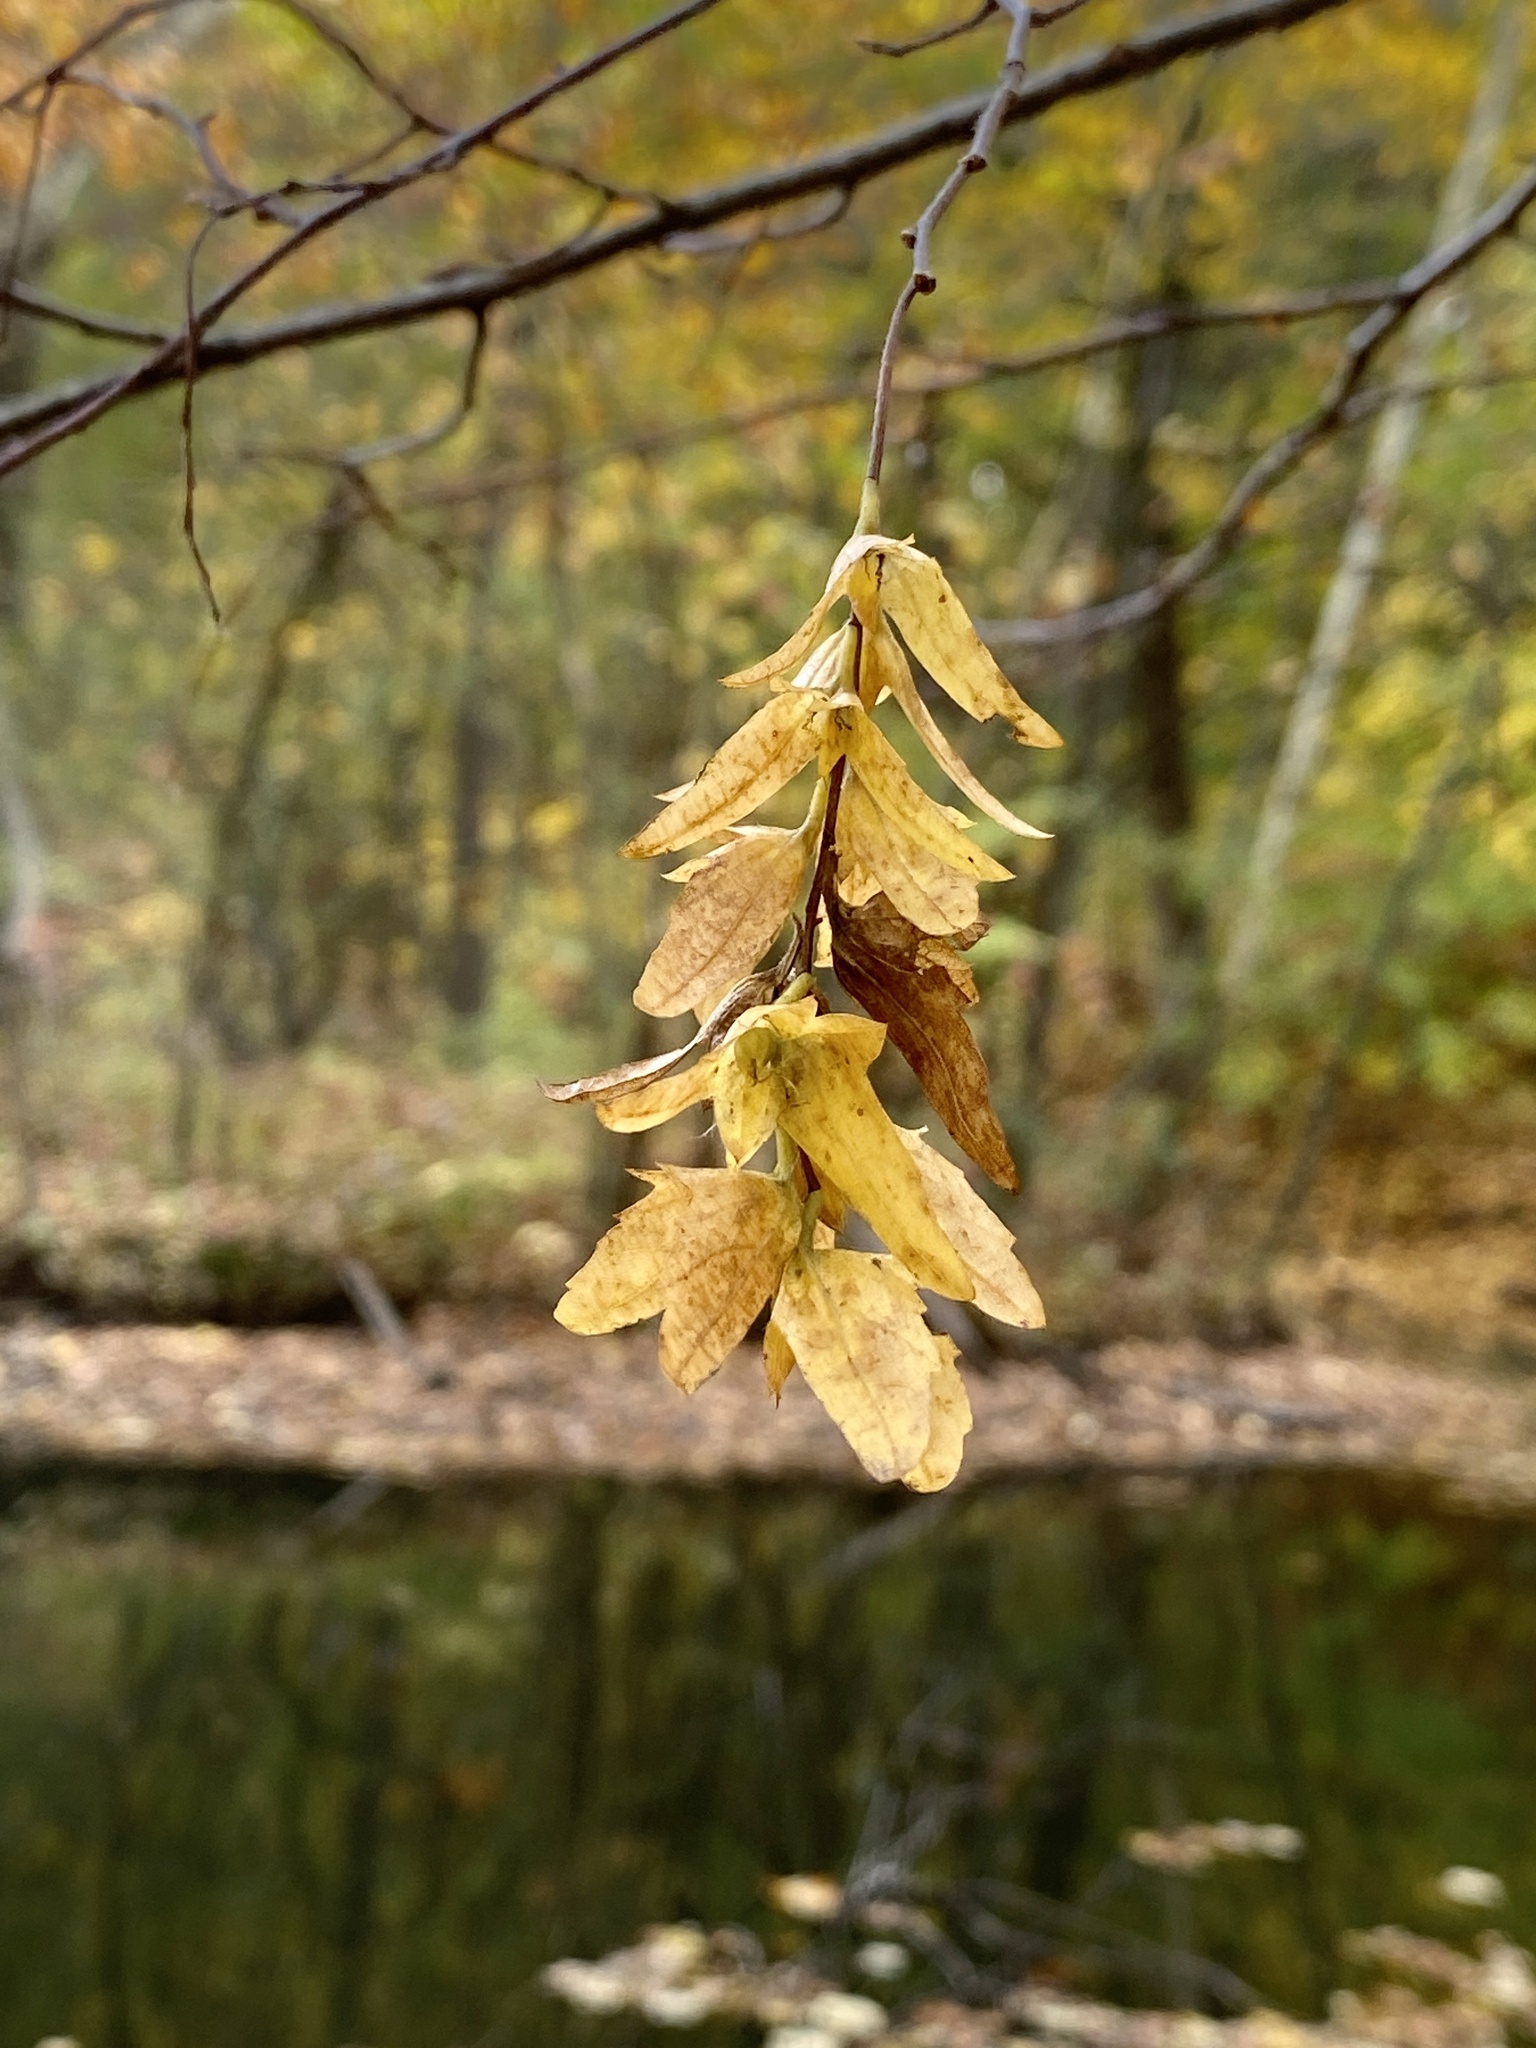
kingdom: Plantae
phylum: Tracheophyta
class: Magnoliopsida
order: Fagales
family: Betulaceae
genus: Carpinus
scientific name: Carpinus caroliniana
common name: American hornbeam
